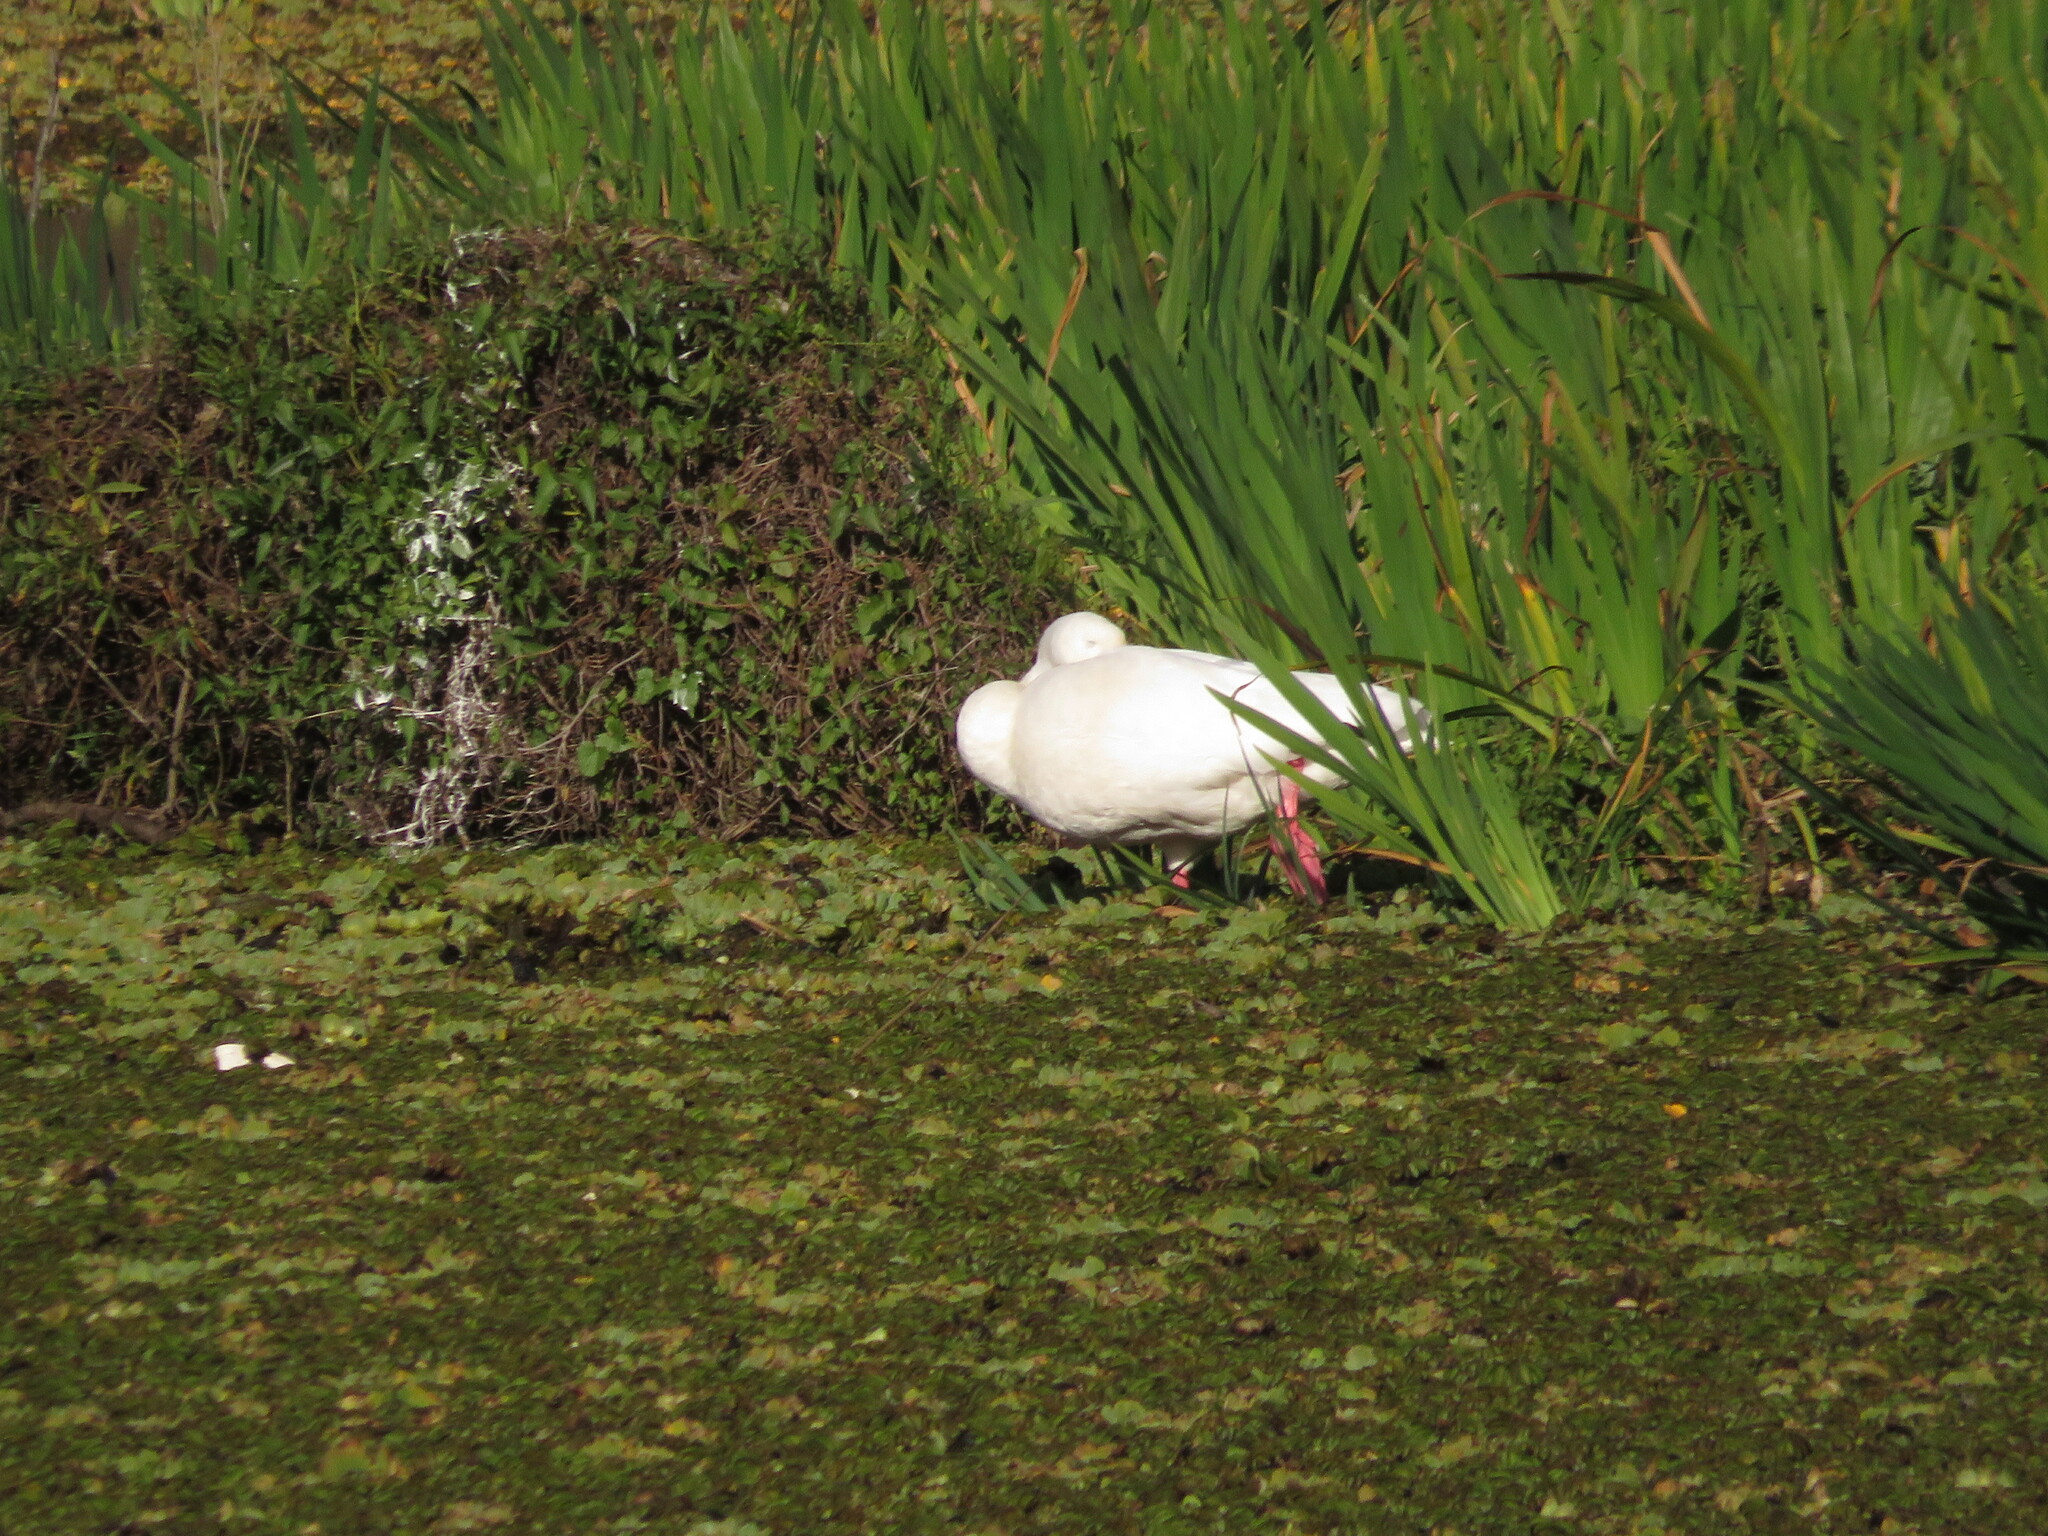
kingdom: Animalia
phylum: Chordata
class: Aves
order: Anseriformes
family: Anatidae
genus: Coscoroba
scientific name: Coscoroba coscoroba
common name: Coscoroba swan
